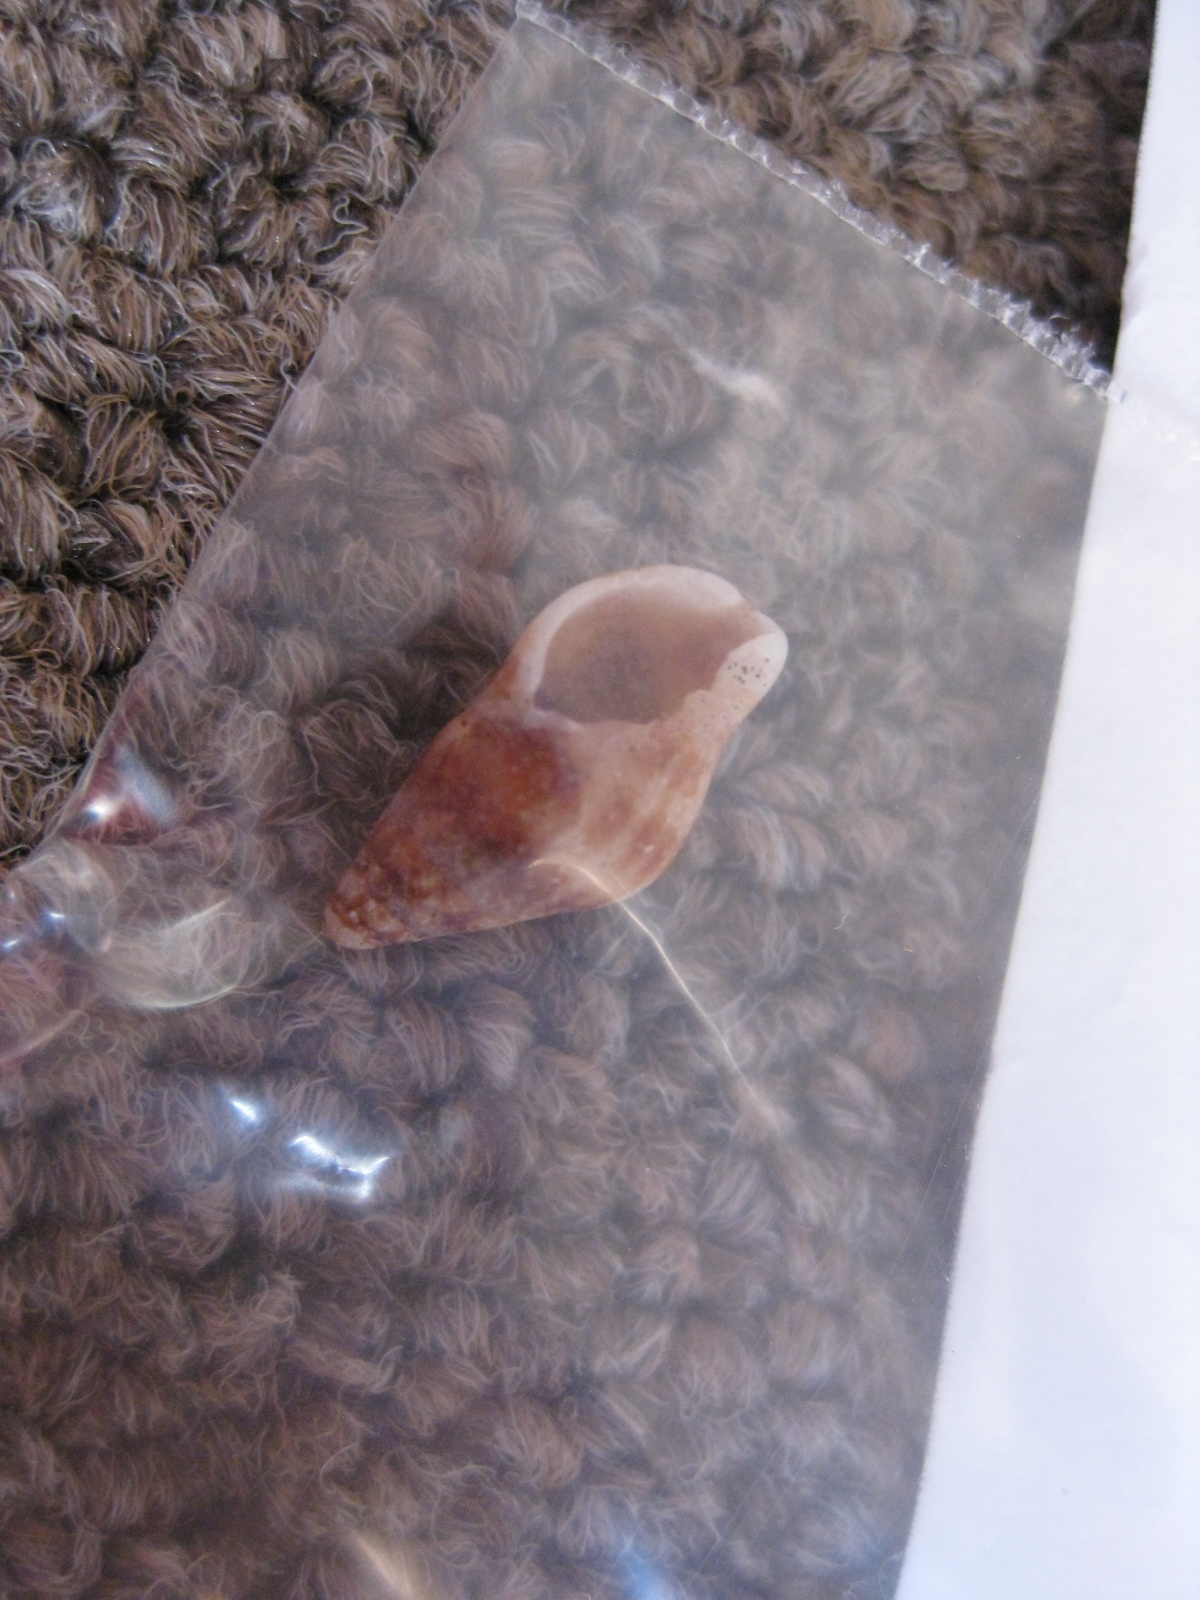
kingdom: Animalia
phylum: Mollusca
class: Gastropoda
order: Neogastropoda
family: Tudiclidae
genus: Buccinulum
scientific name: Buccinulum vittatum
